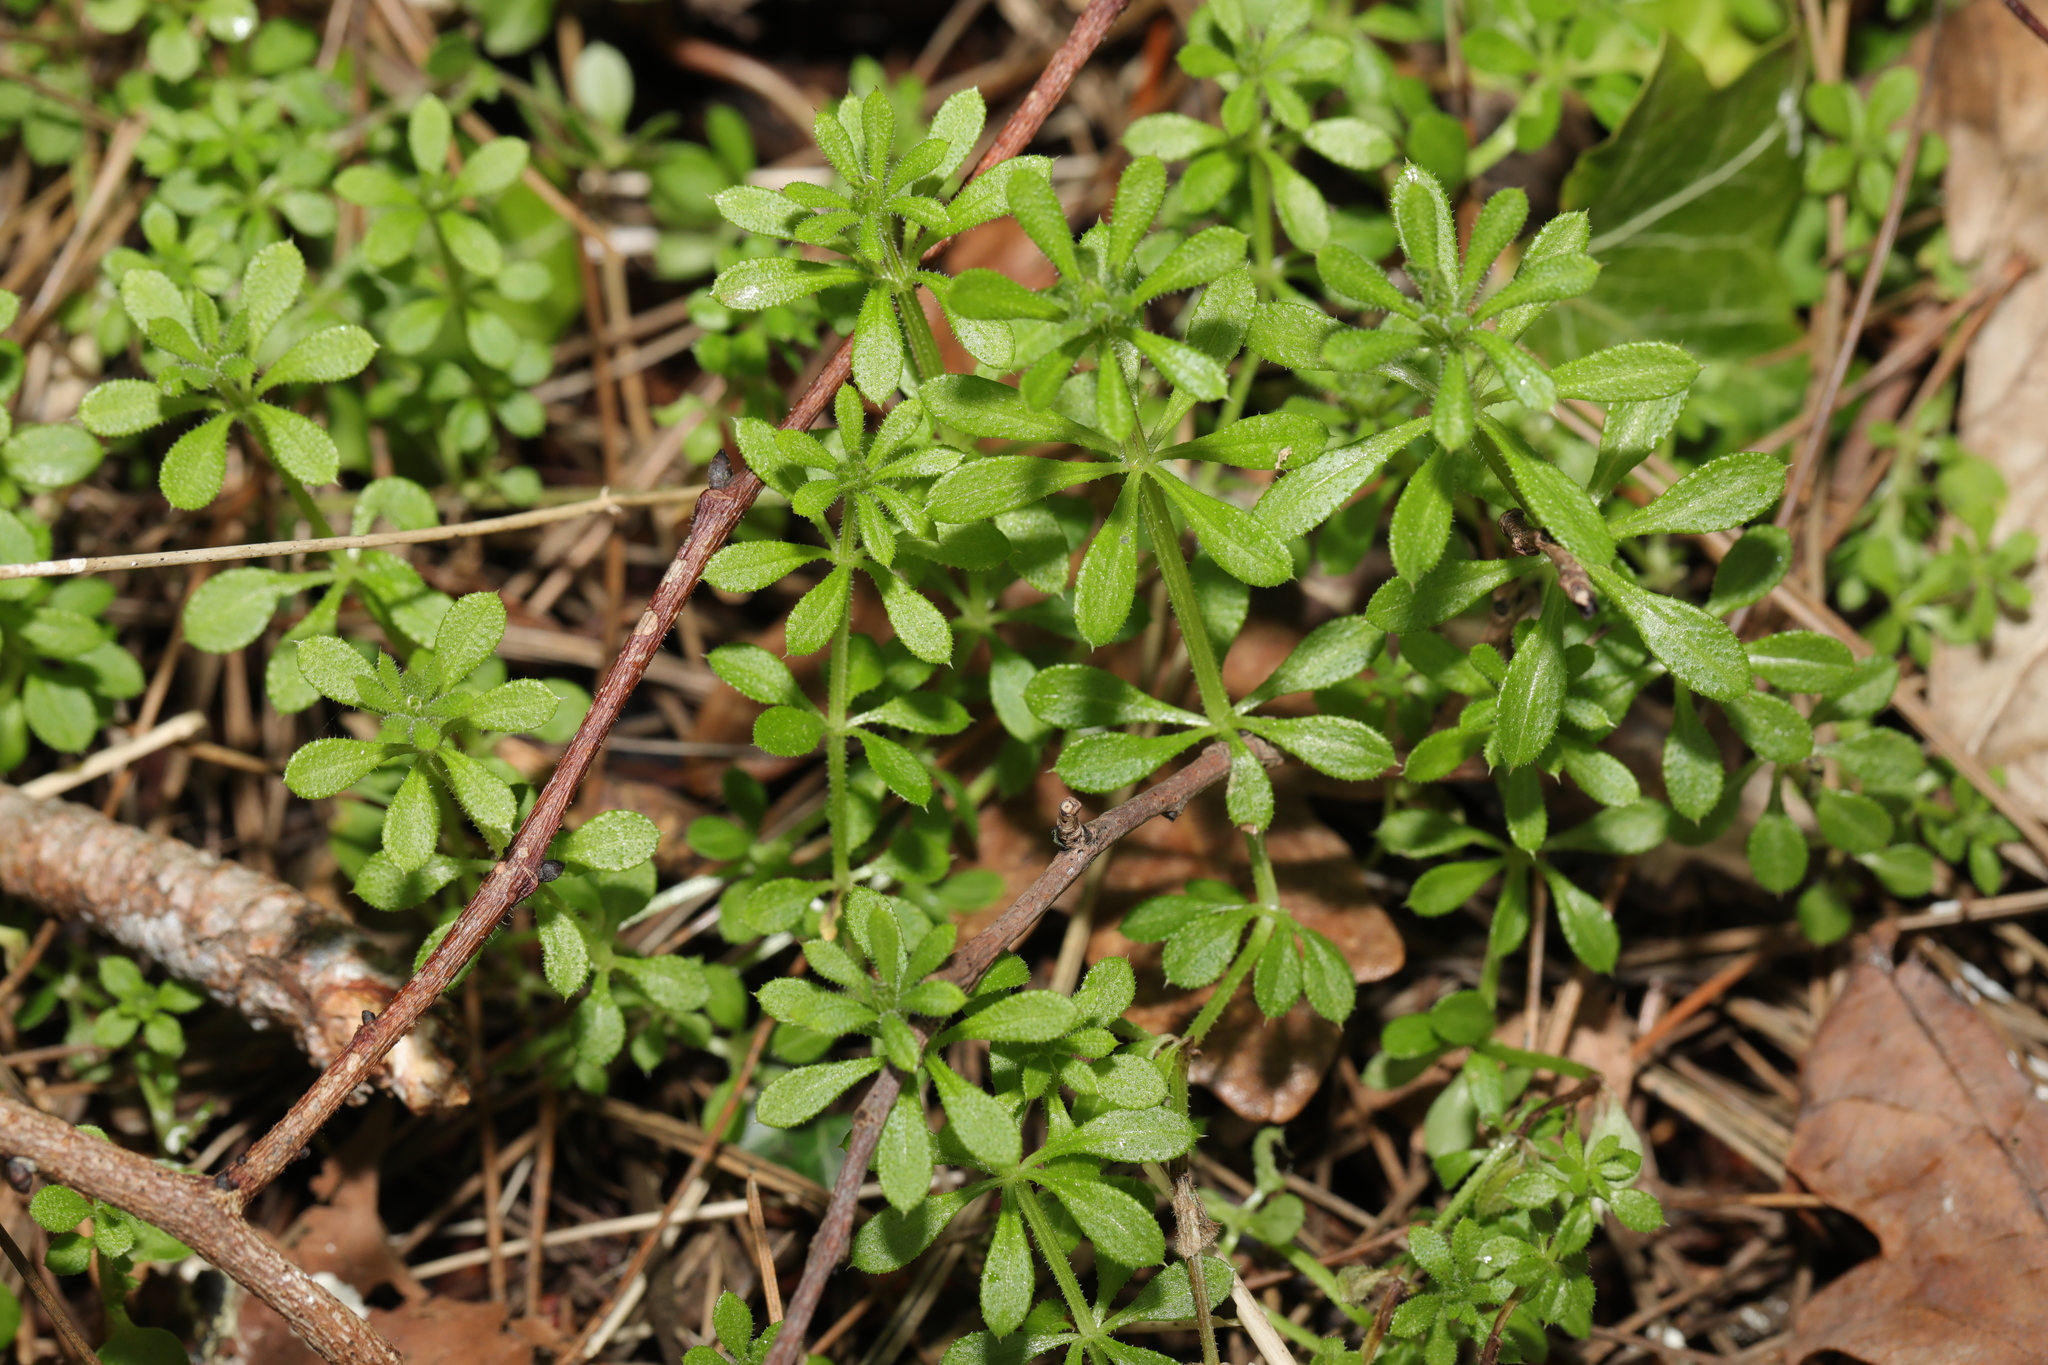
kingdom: Plantae
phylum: Tracheophyta
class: Magnoliopsida
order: Gentianales
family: Rubiaceae
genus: Galium
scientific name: Galium aparine
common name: Cleavers
